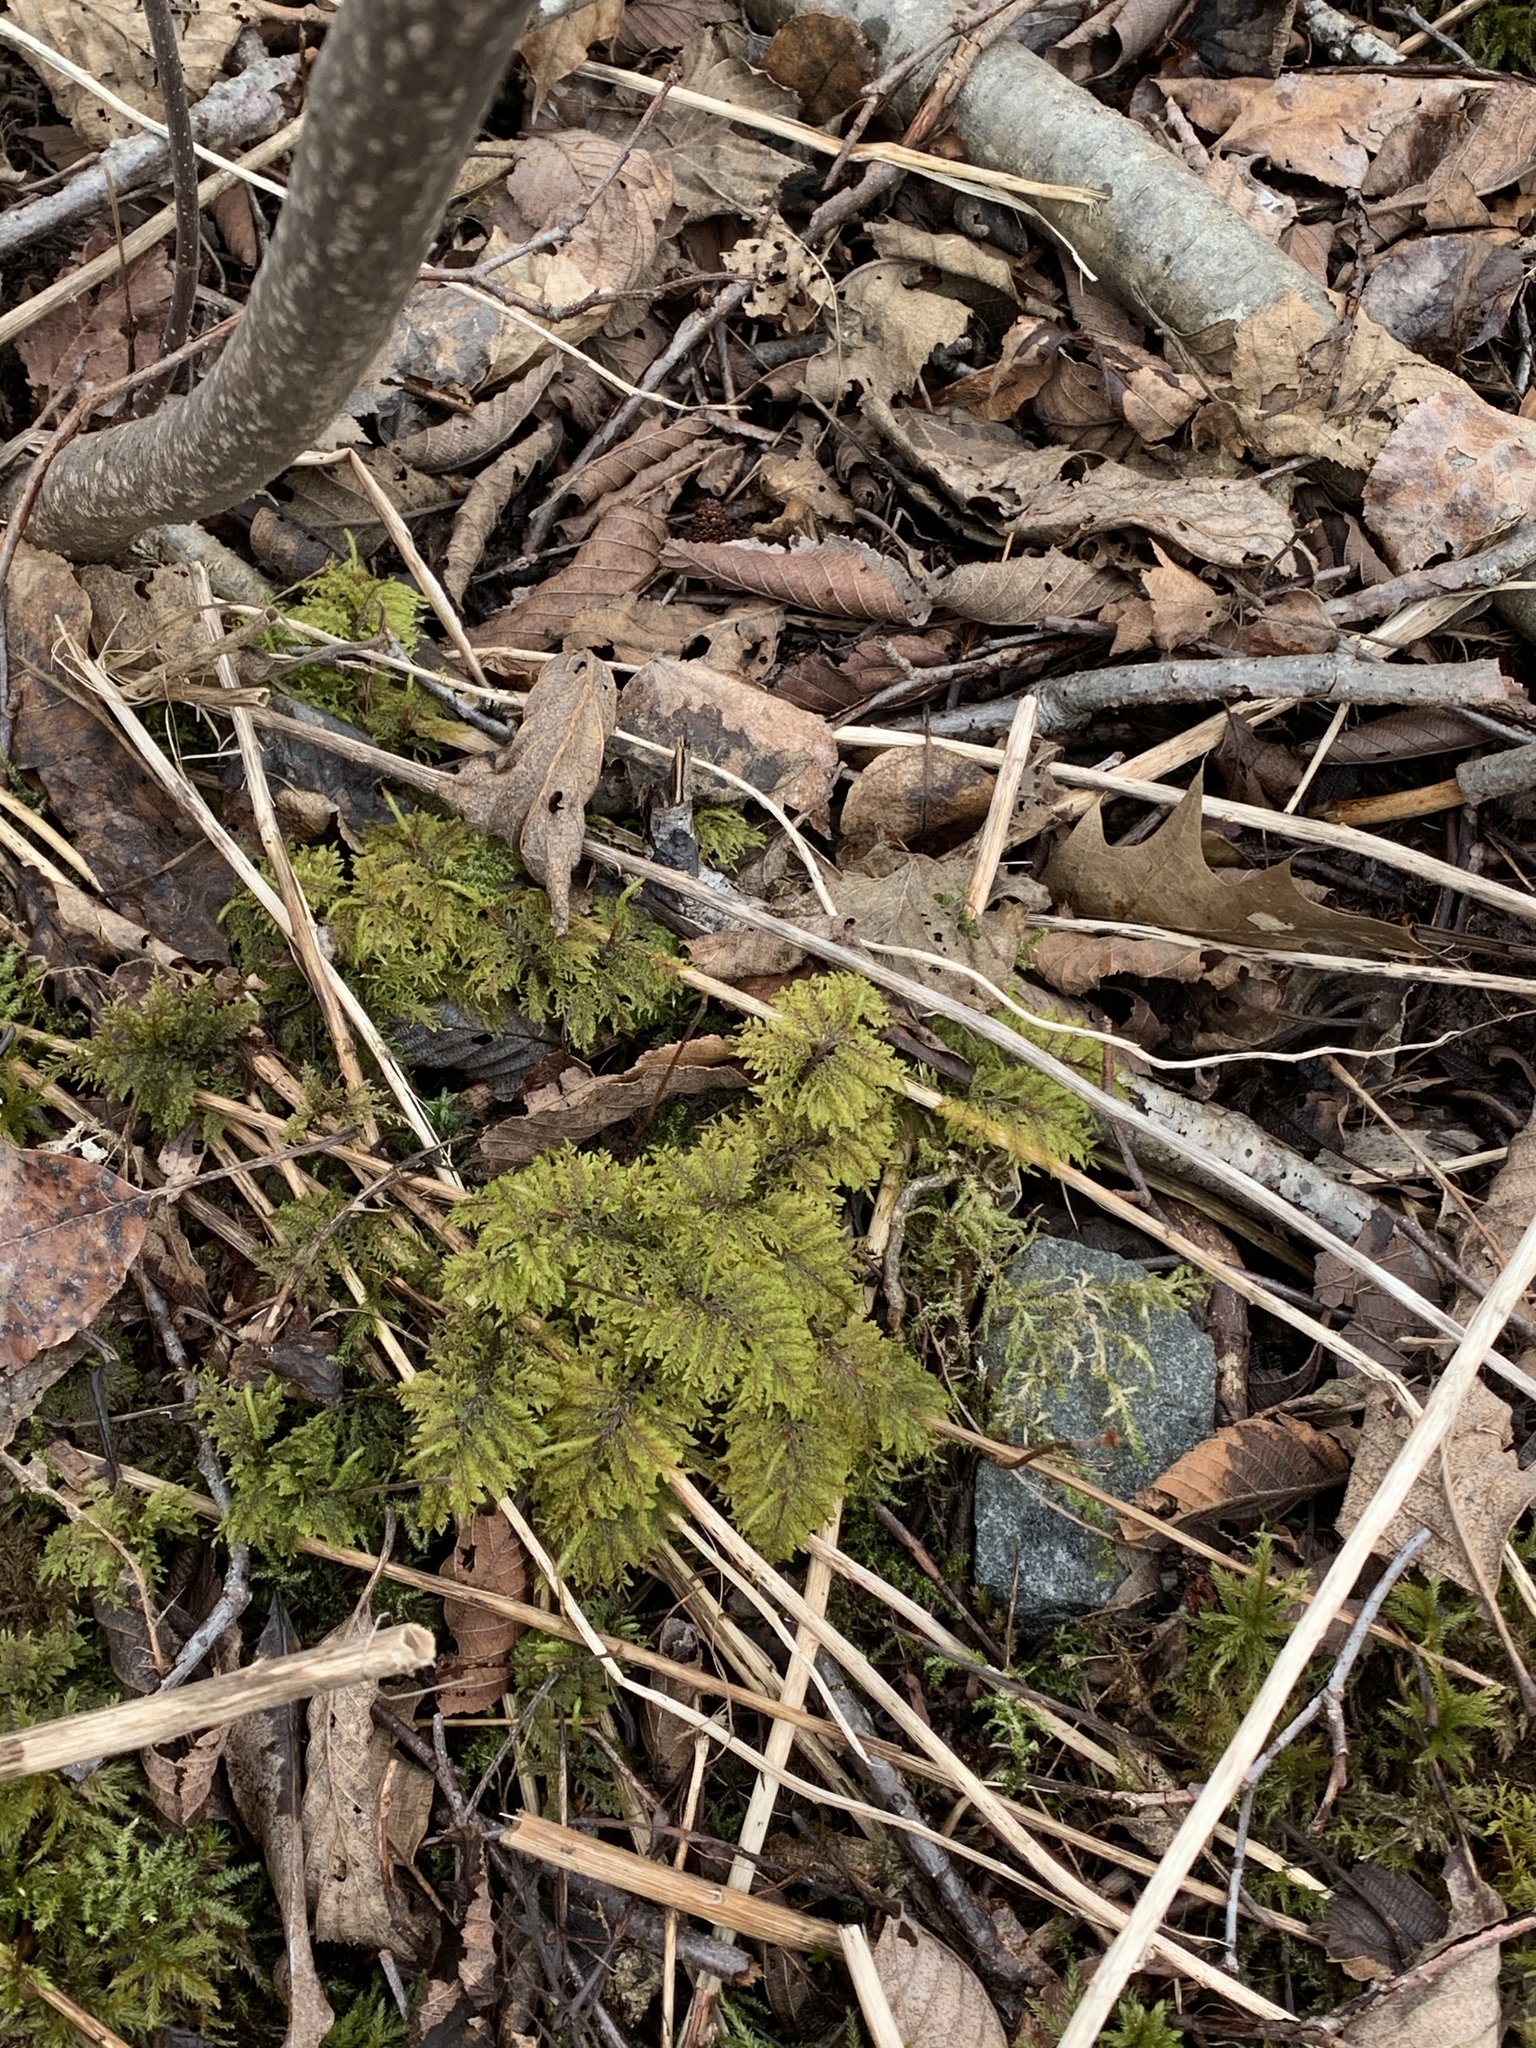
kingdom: Plantae
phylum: Bryophyta
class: Bryopsida
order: Hypnales
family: Hylocomiaceae
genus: Hylocomium
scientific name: Hylocomium splendens
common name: Stairstep moss
